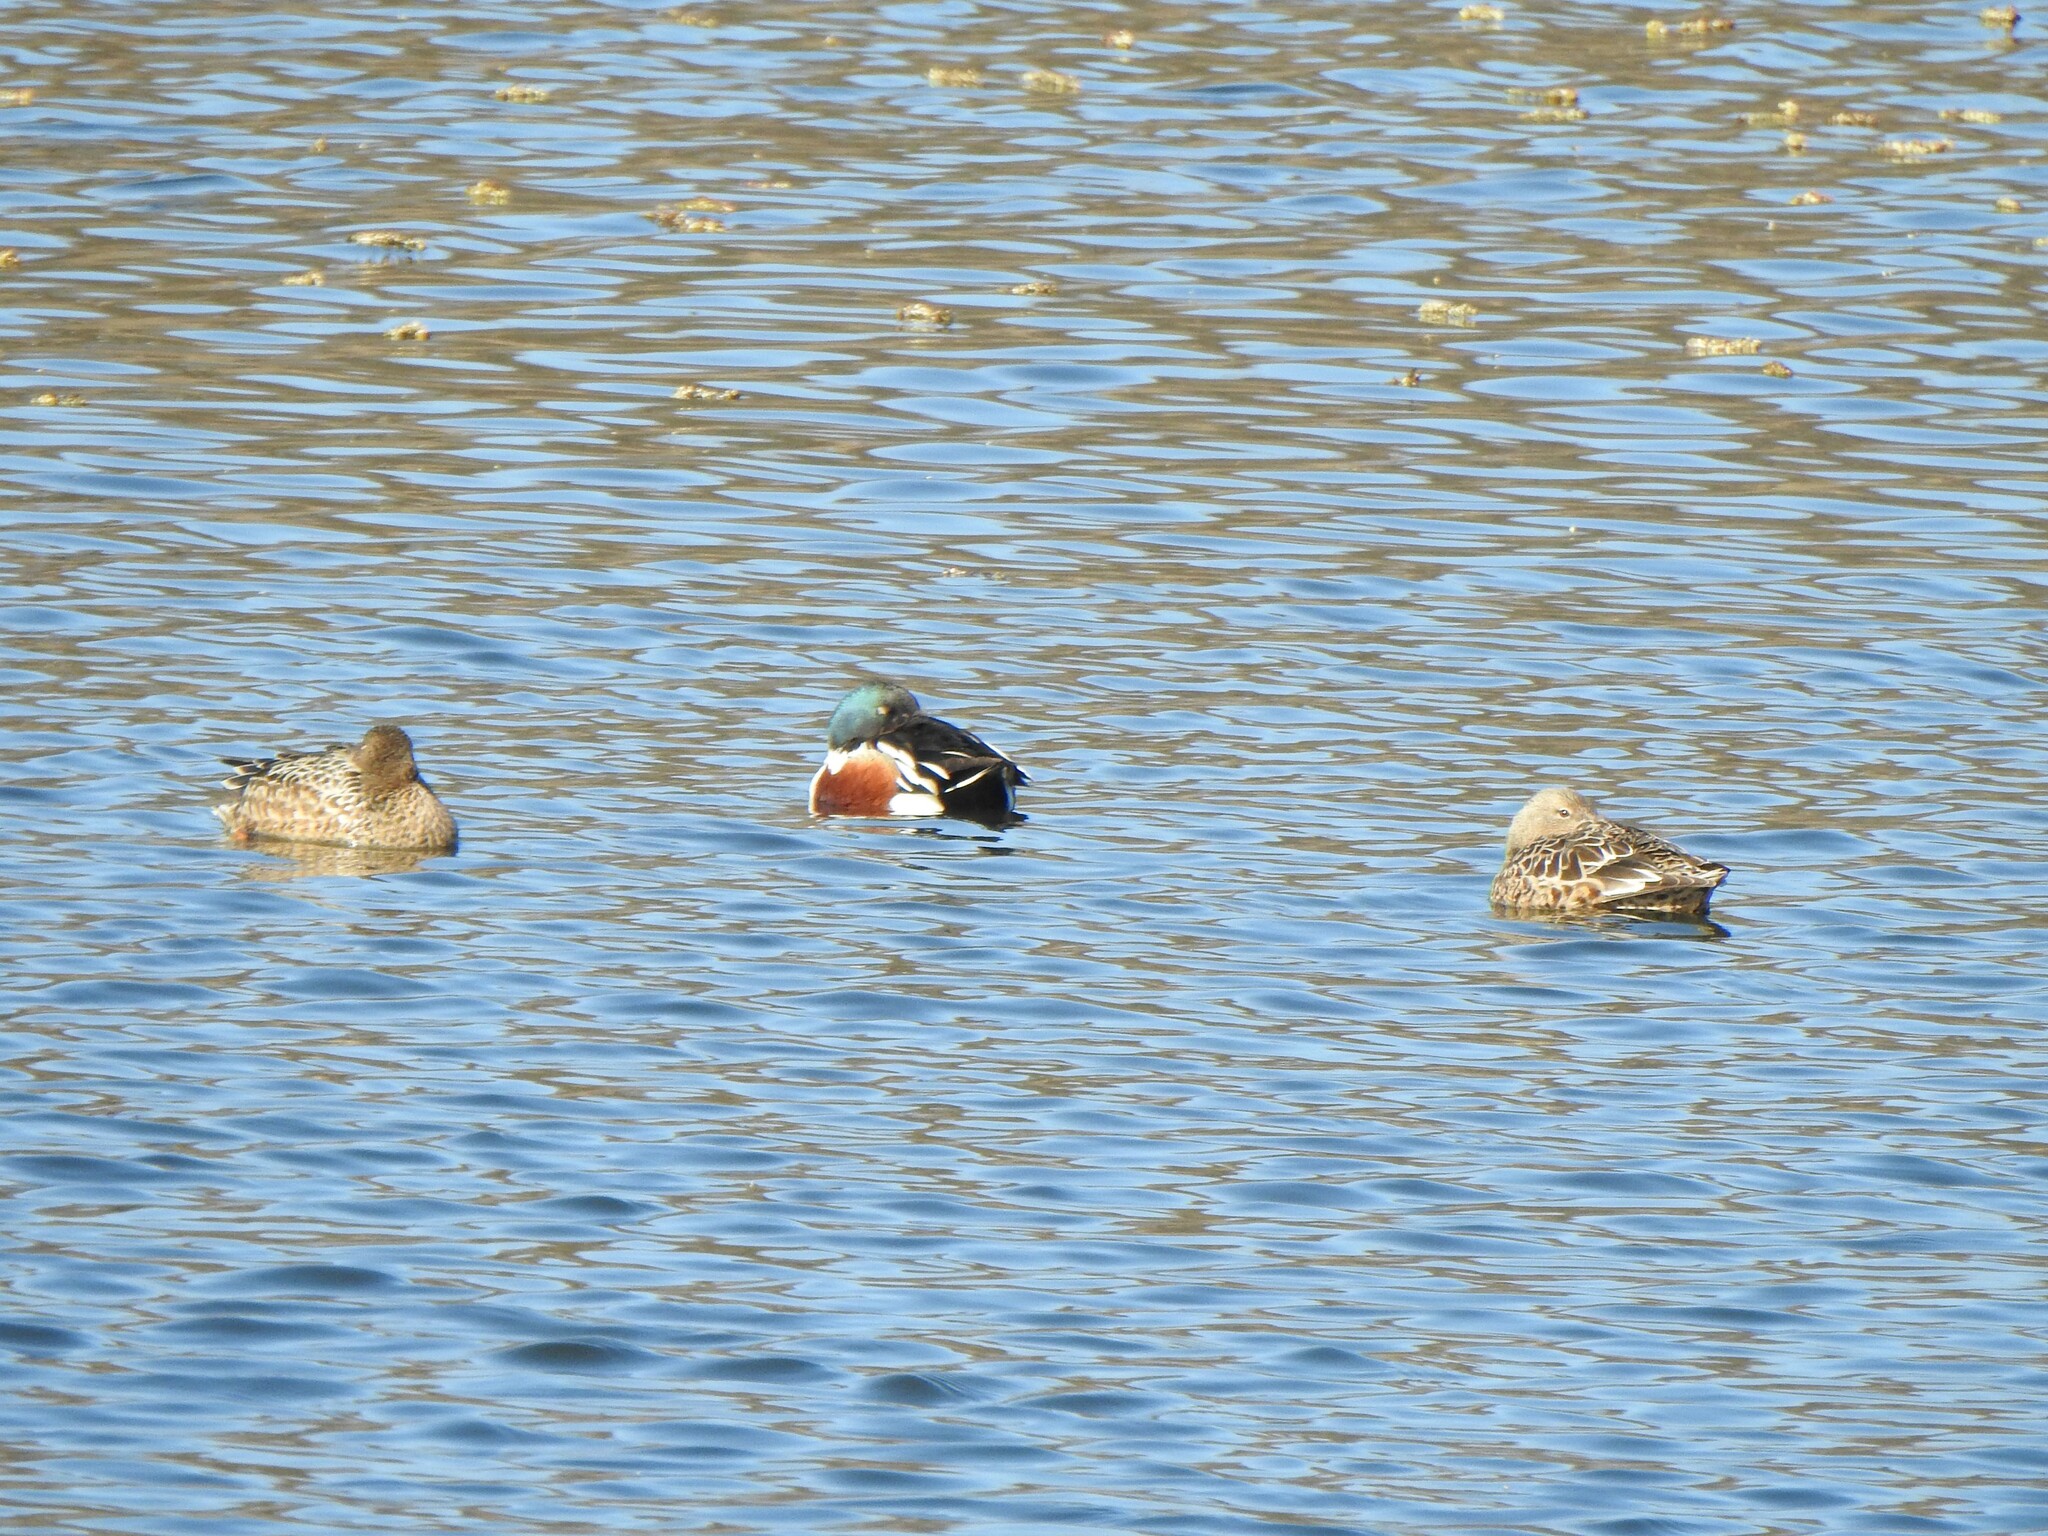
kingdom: Animalia
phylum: Chordata
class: Aves
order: Anseriformes
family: Anatidae
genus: Spatula
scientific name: Spatula clypeata
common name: Northern shoveler
